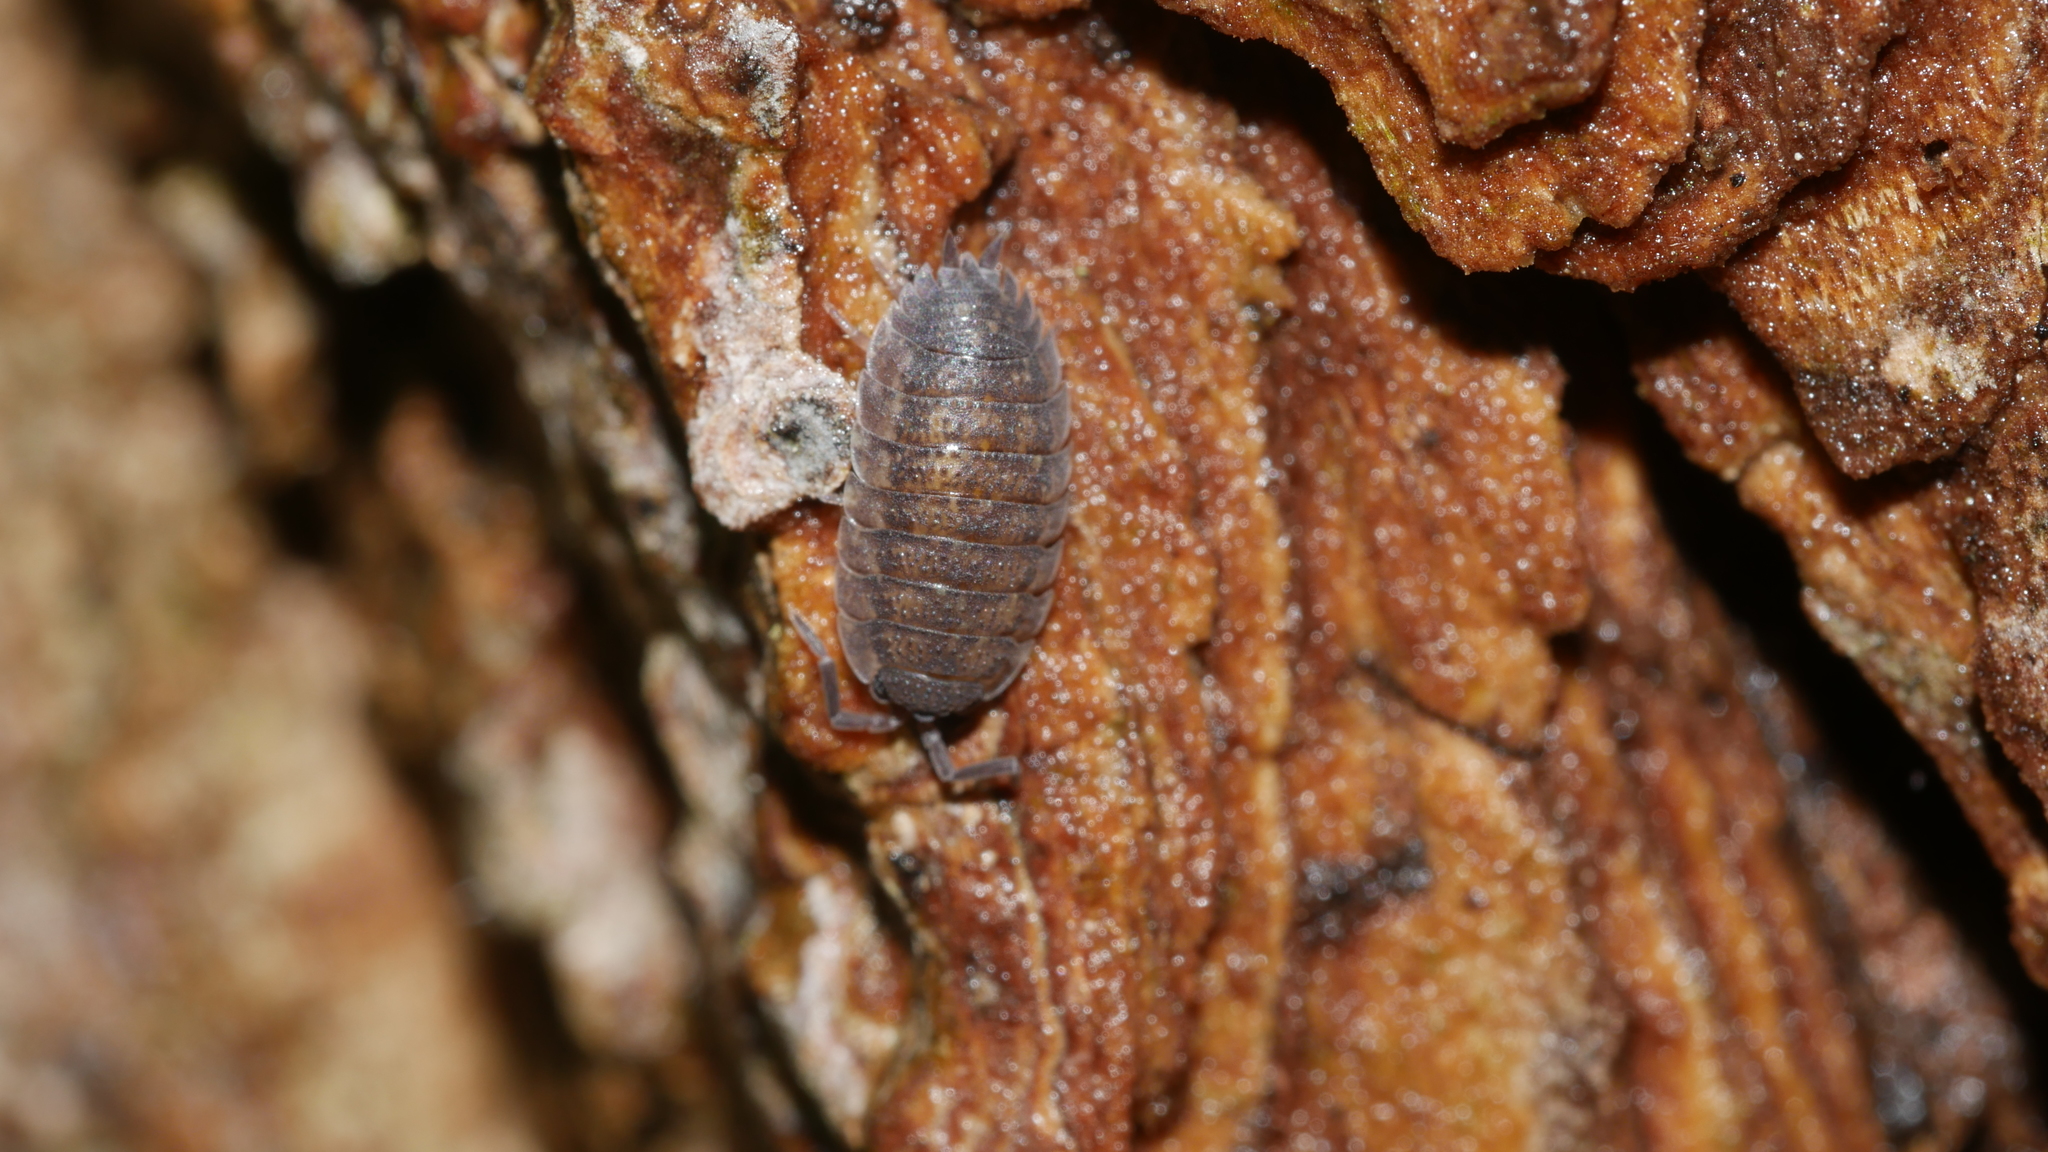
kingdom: Animalia
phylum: Arthropoda
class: Malacostraca
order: Isopoda
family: Porcellionidae
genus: Porcellio
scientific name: Porcellio scaber
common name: Common rough woodlouse
